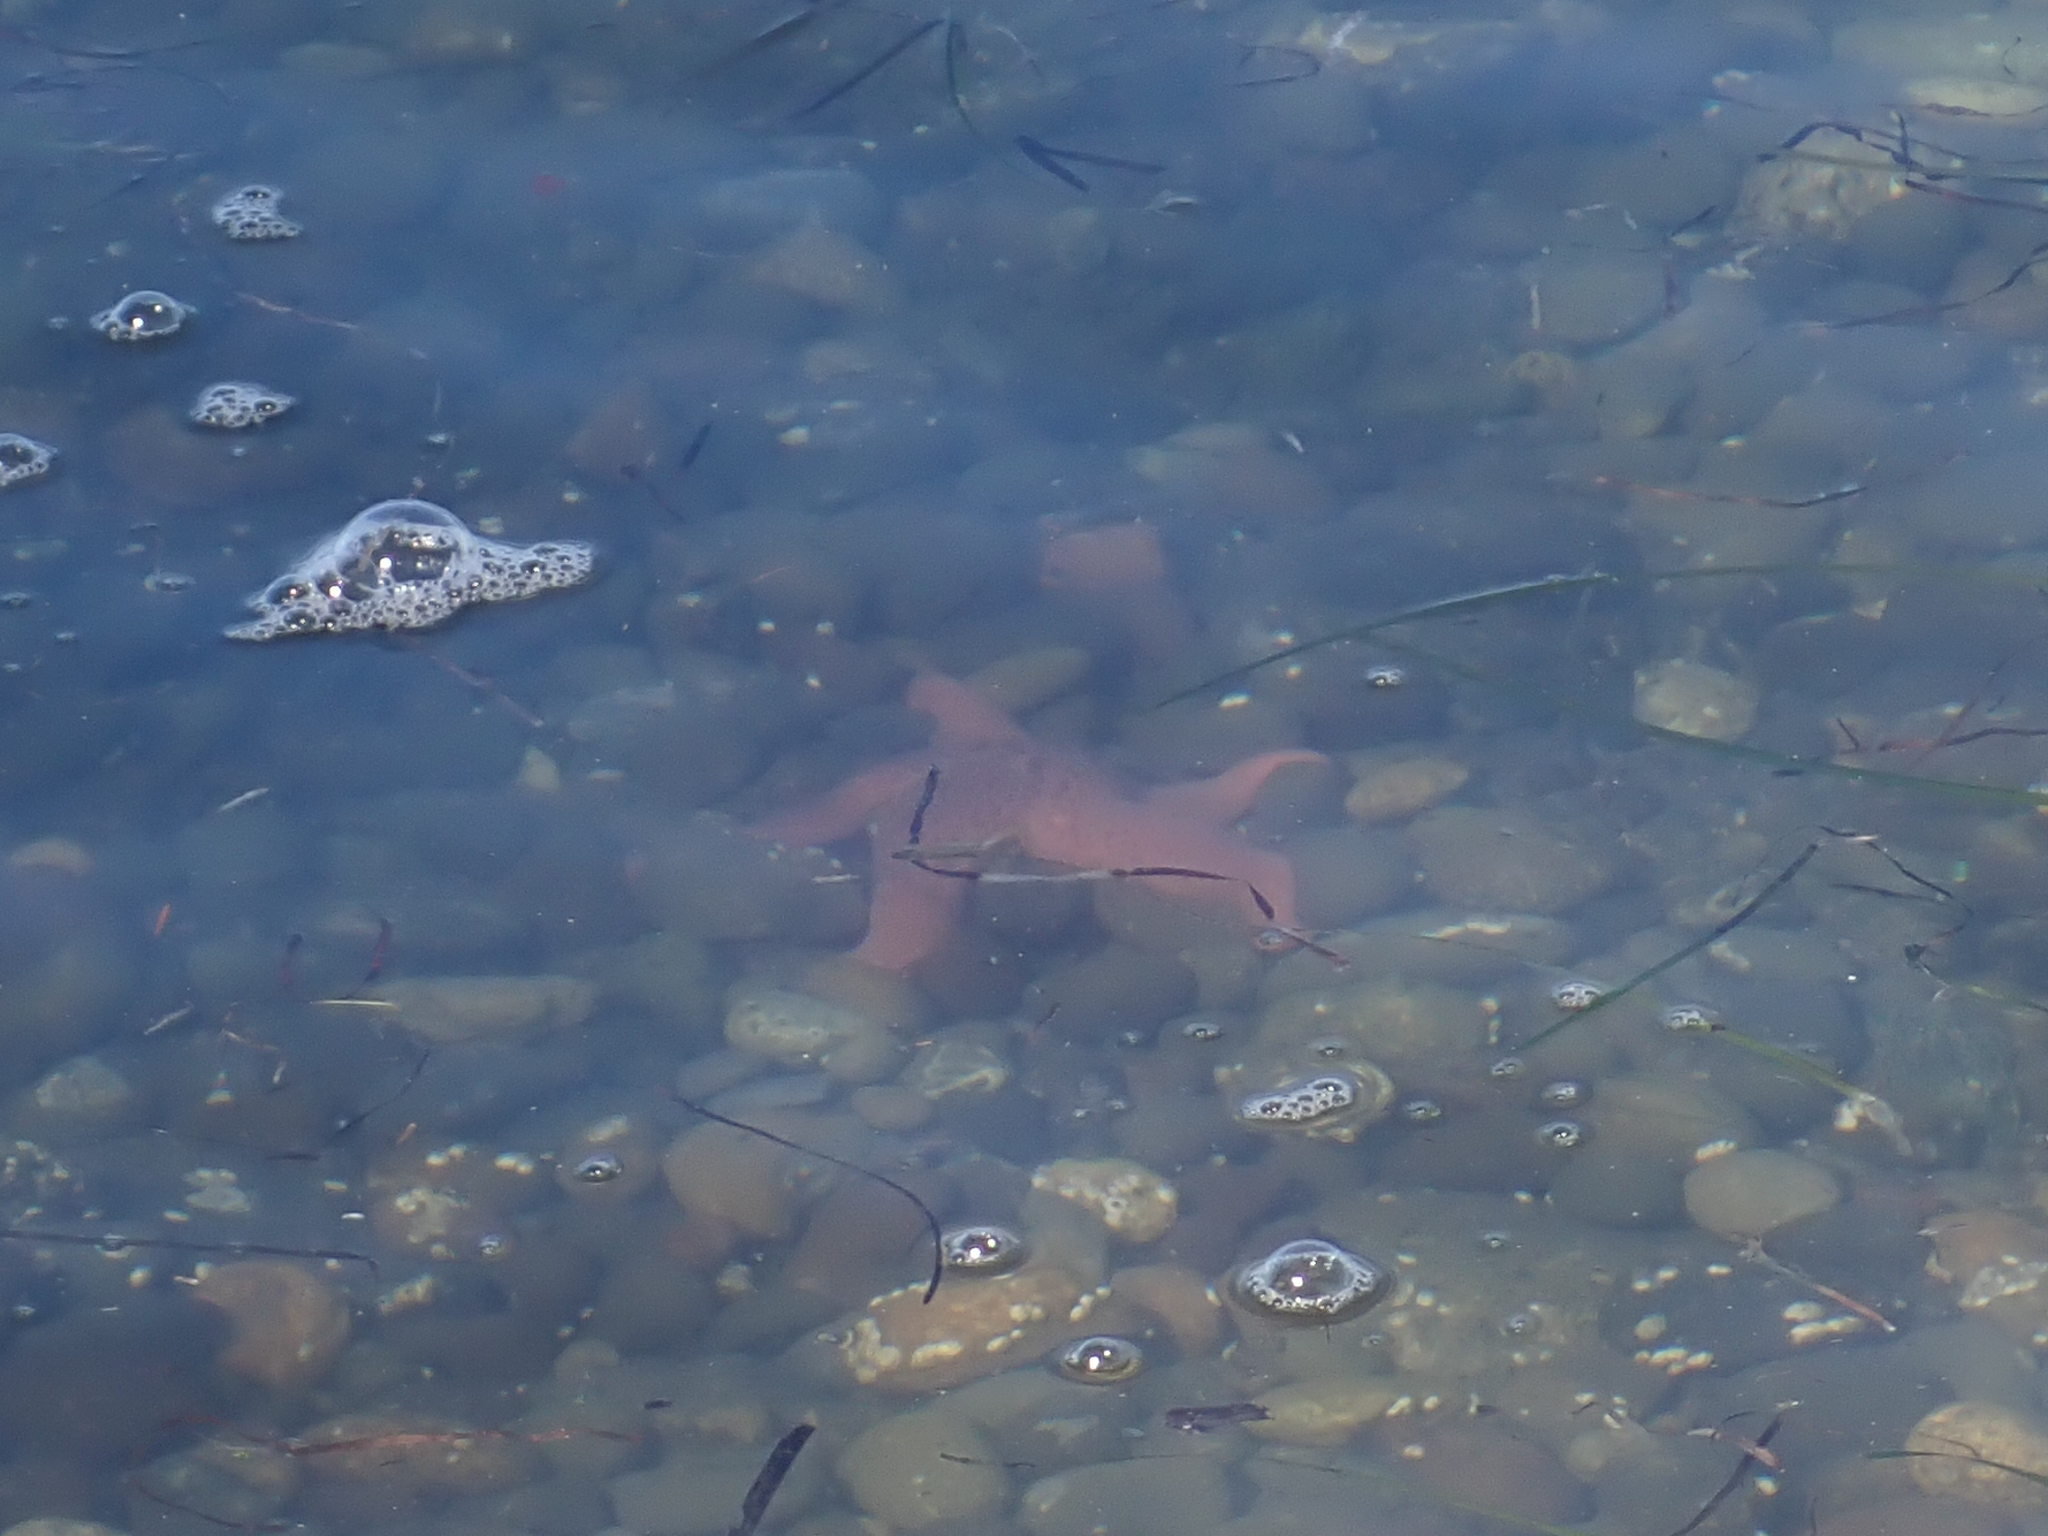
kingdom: Animalia
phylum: Echinodermata
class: Asteroidea
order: Forcipulatida
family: Asteriidae
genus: Pisaster
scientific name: Pisaster brevispinus
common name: Pink stars
